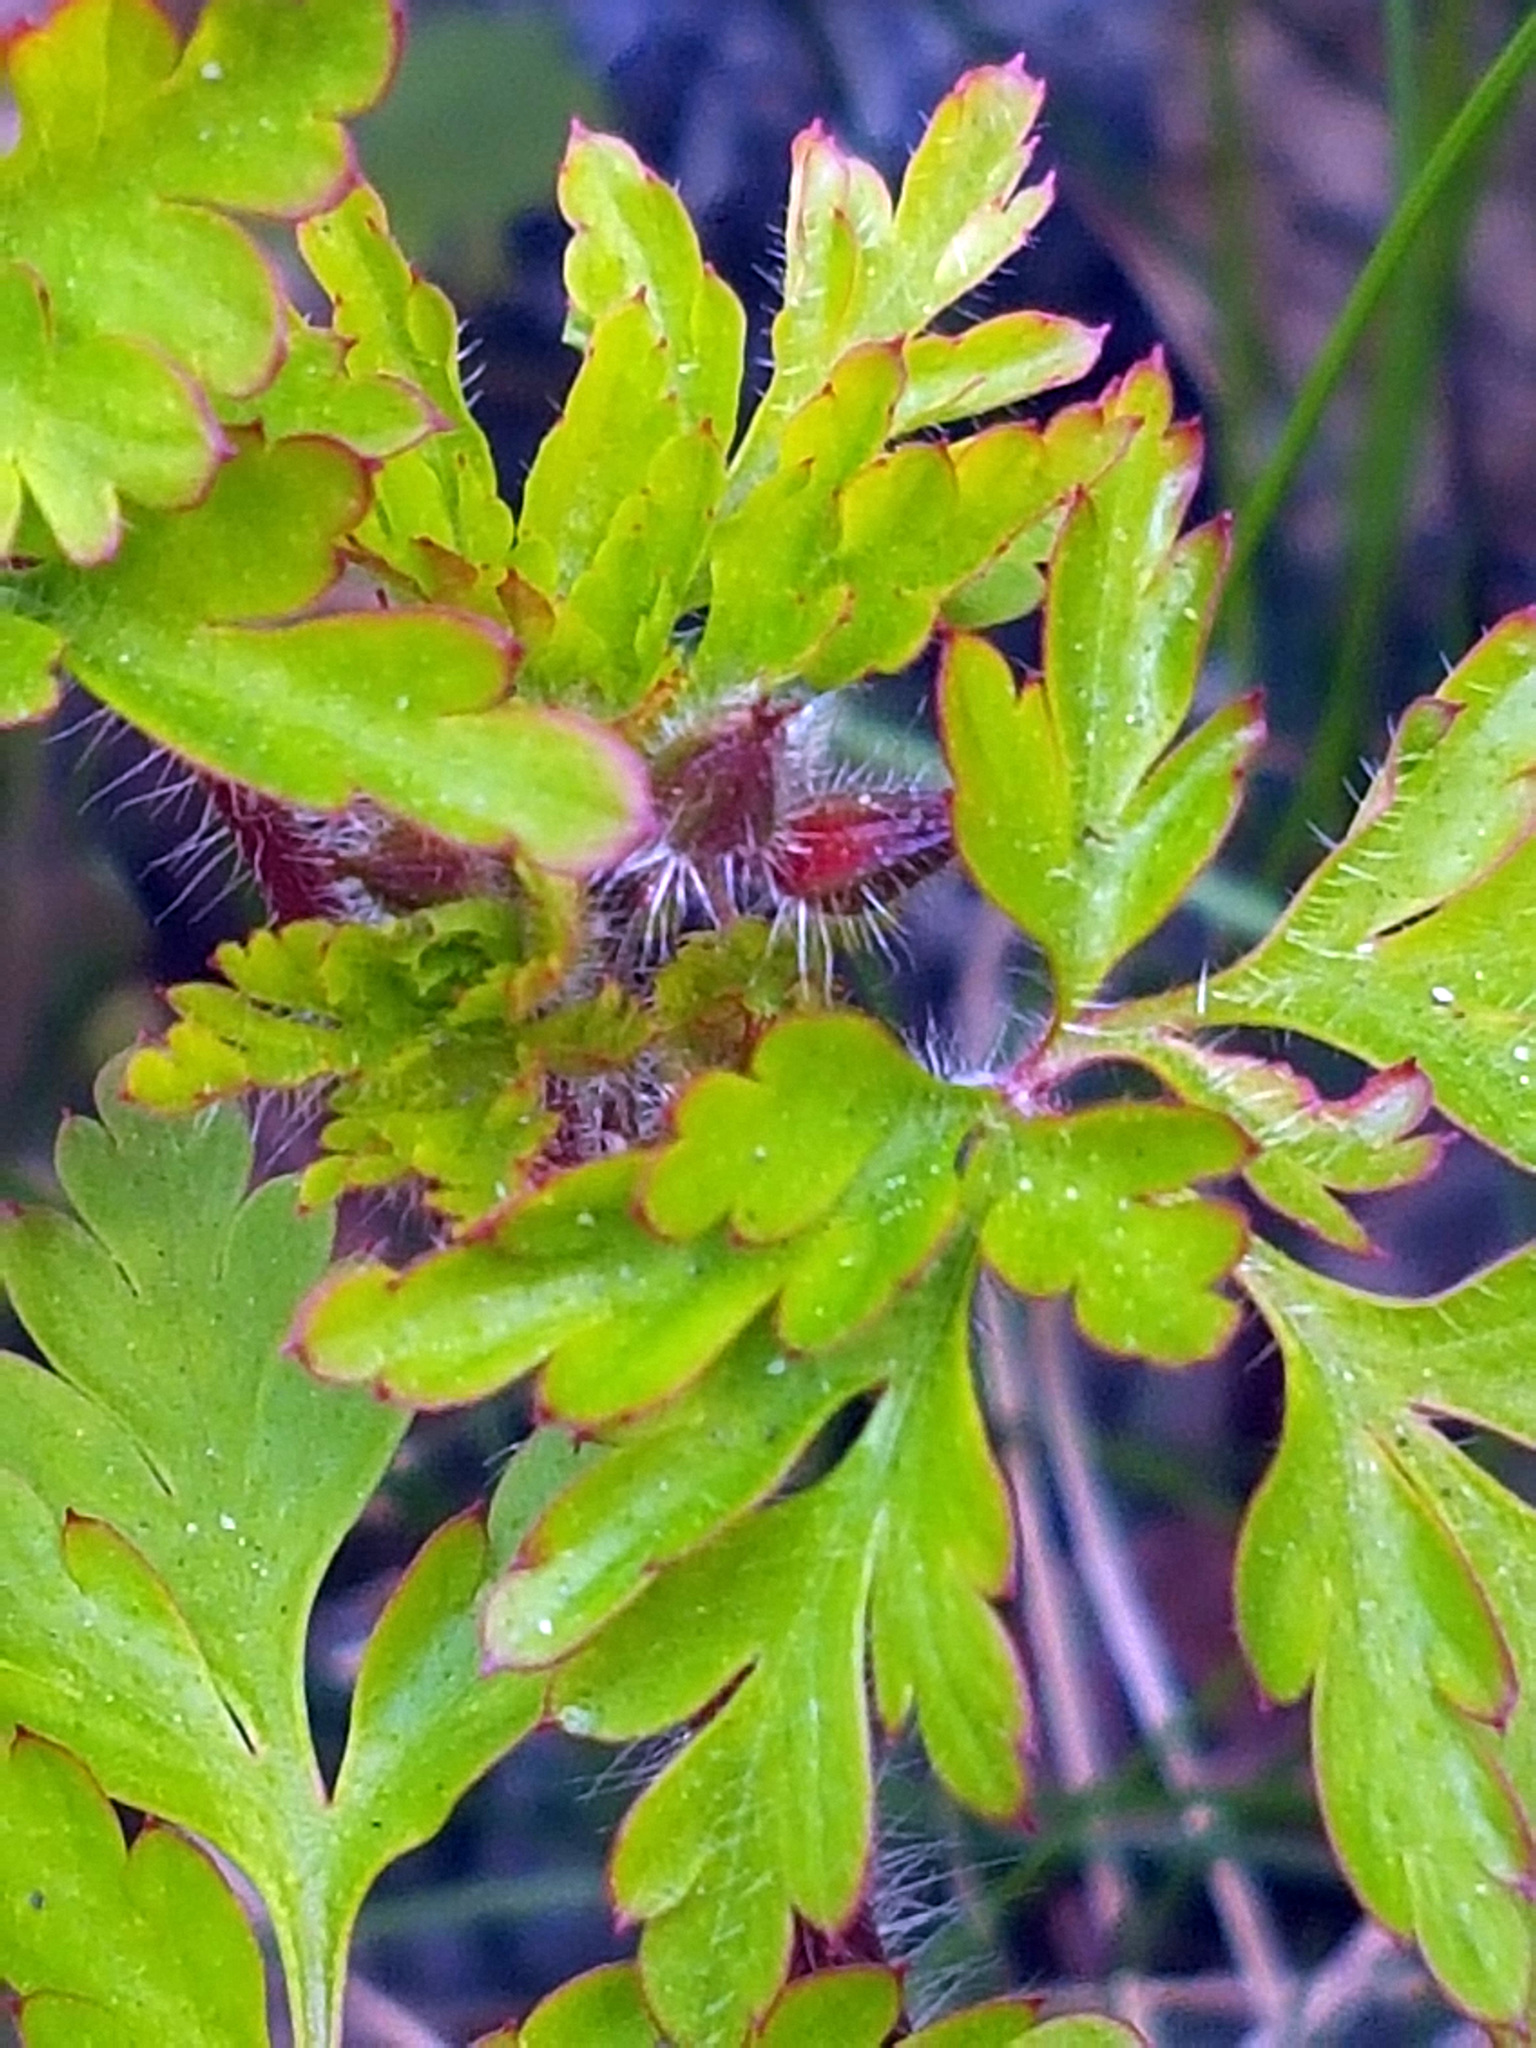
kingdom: Plantae
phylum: Tracheophyta
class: Magnoliopsida
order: Geraniales
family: Geraniaceae
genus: Geranium
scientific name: Geranium robertianum
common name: Herb-robert
